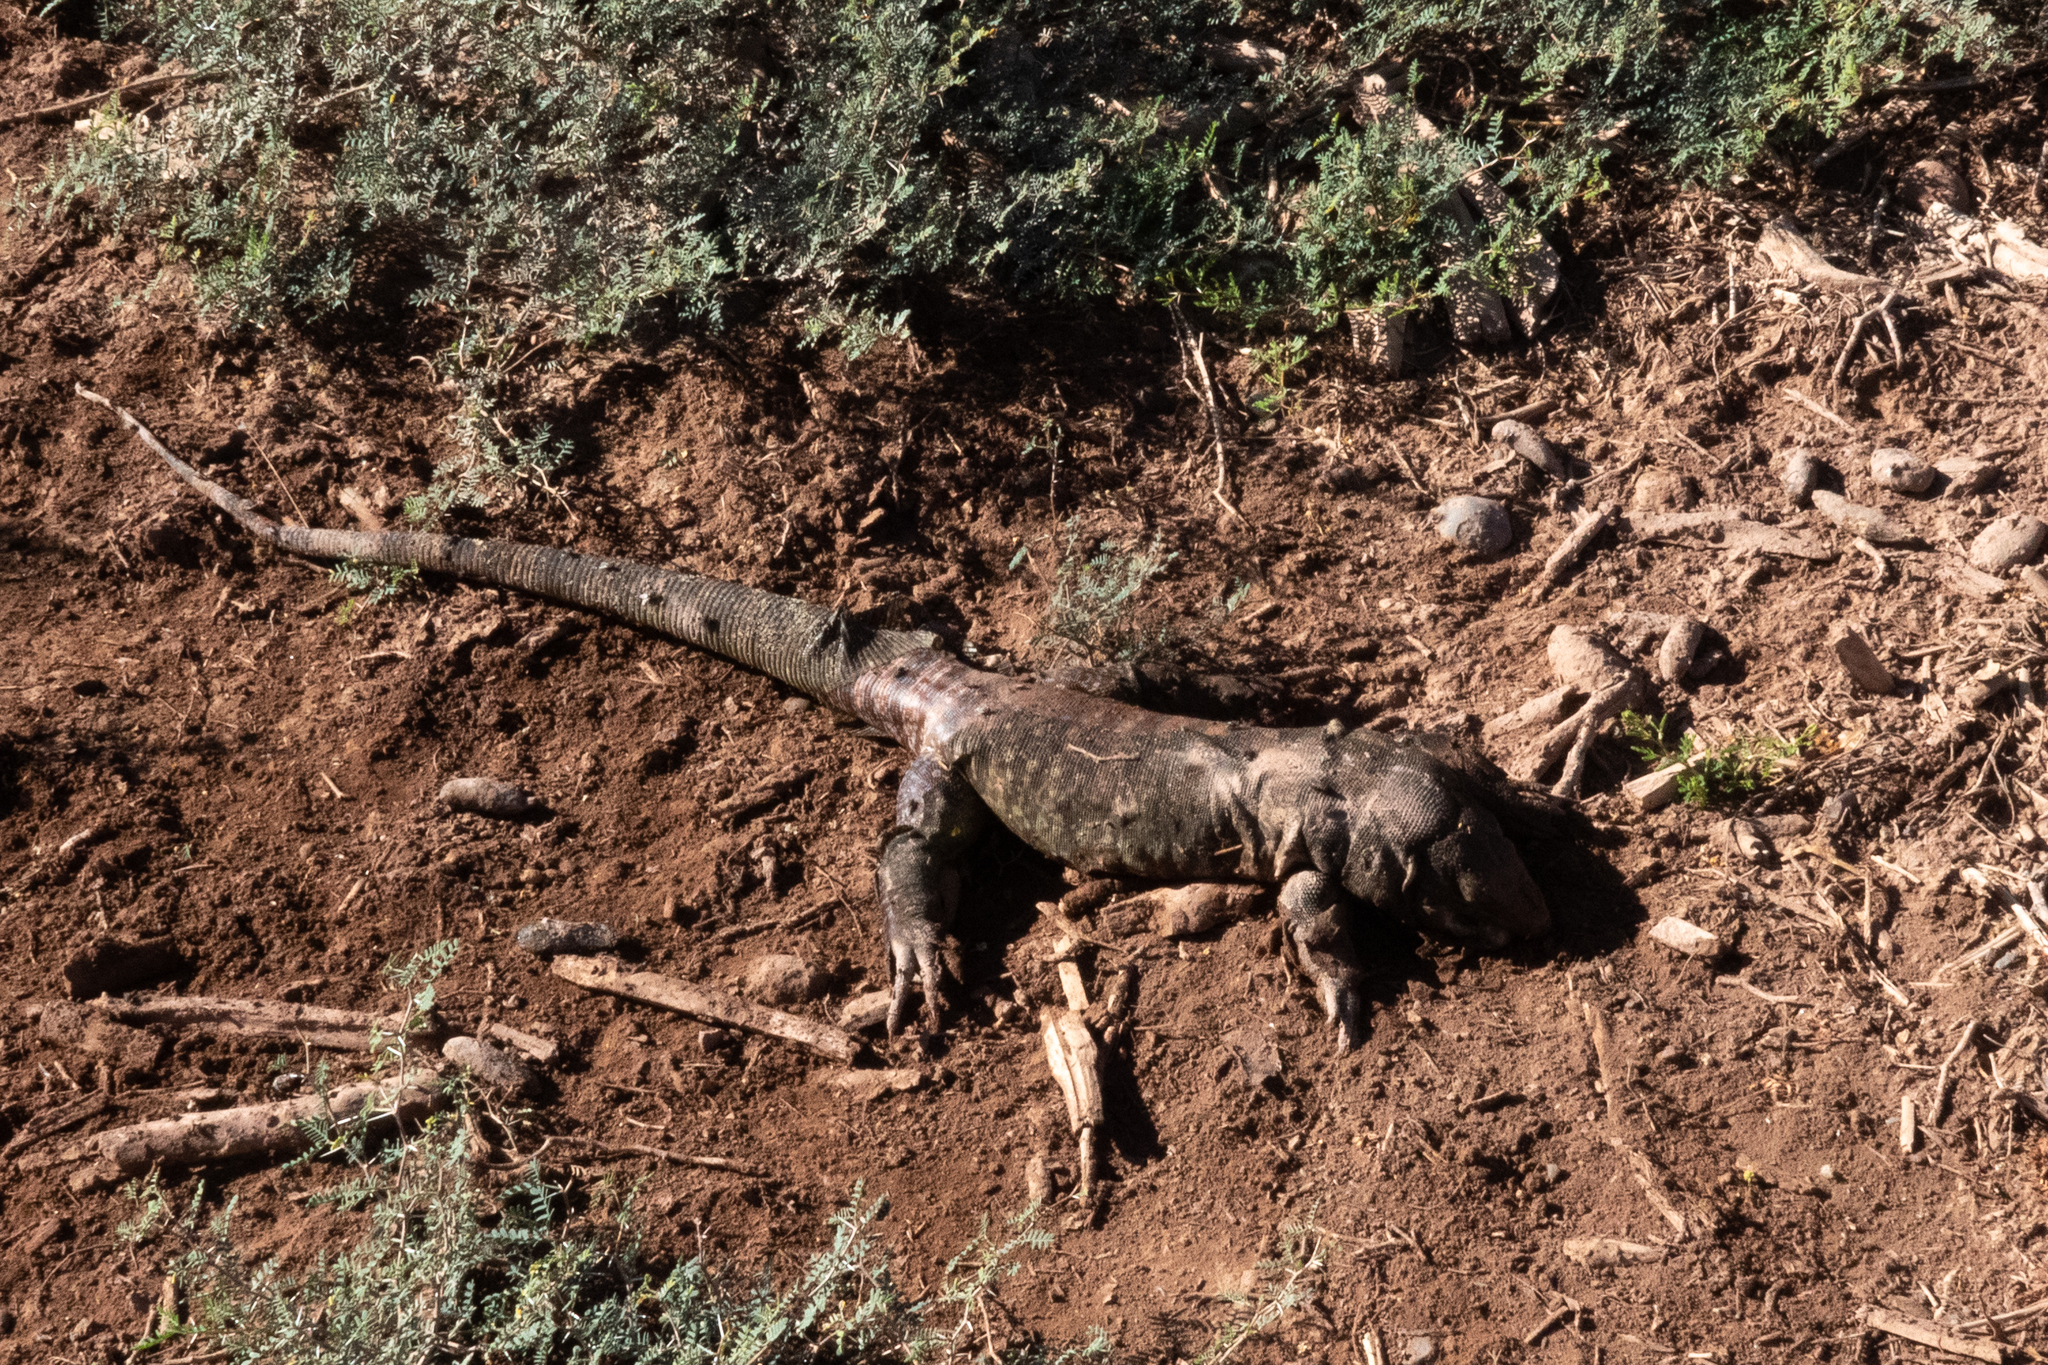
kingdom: Animalia
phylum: Chordata
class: Squamata
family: Teiidae
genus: Salvator
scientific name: Salvator rufescens
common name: Red tegu
